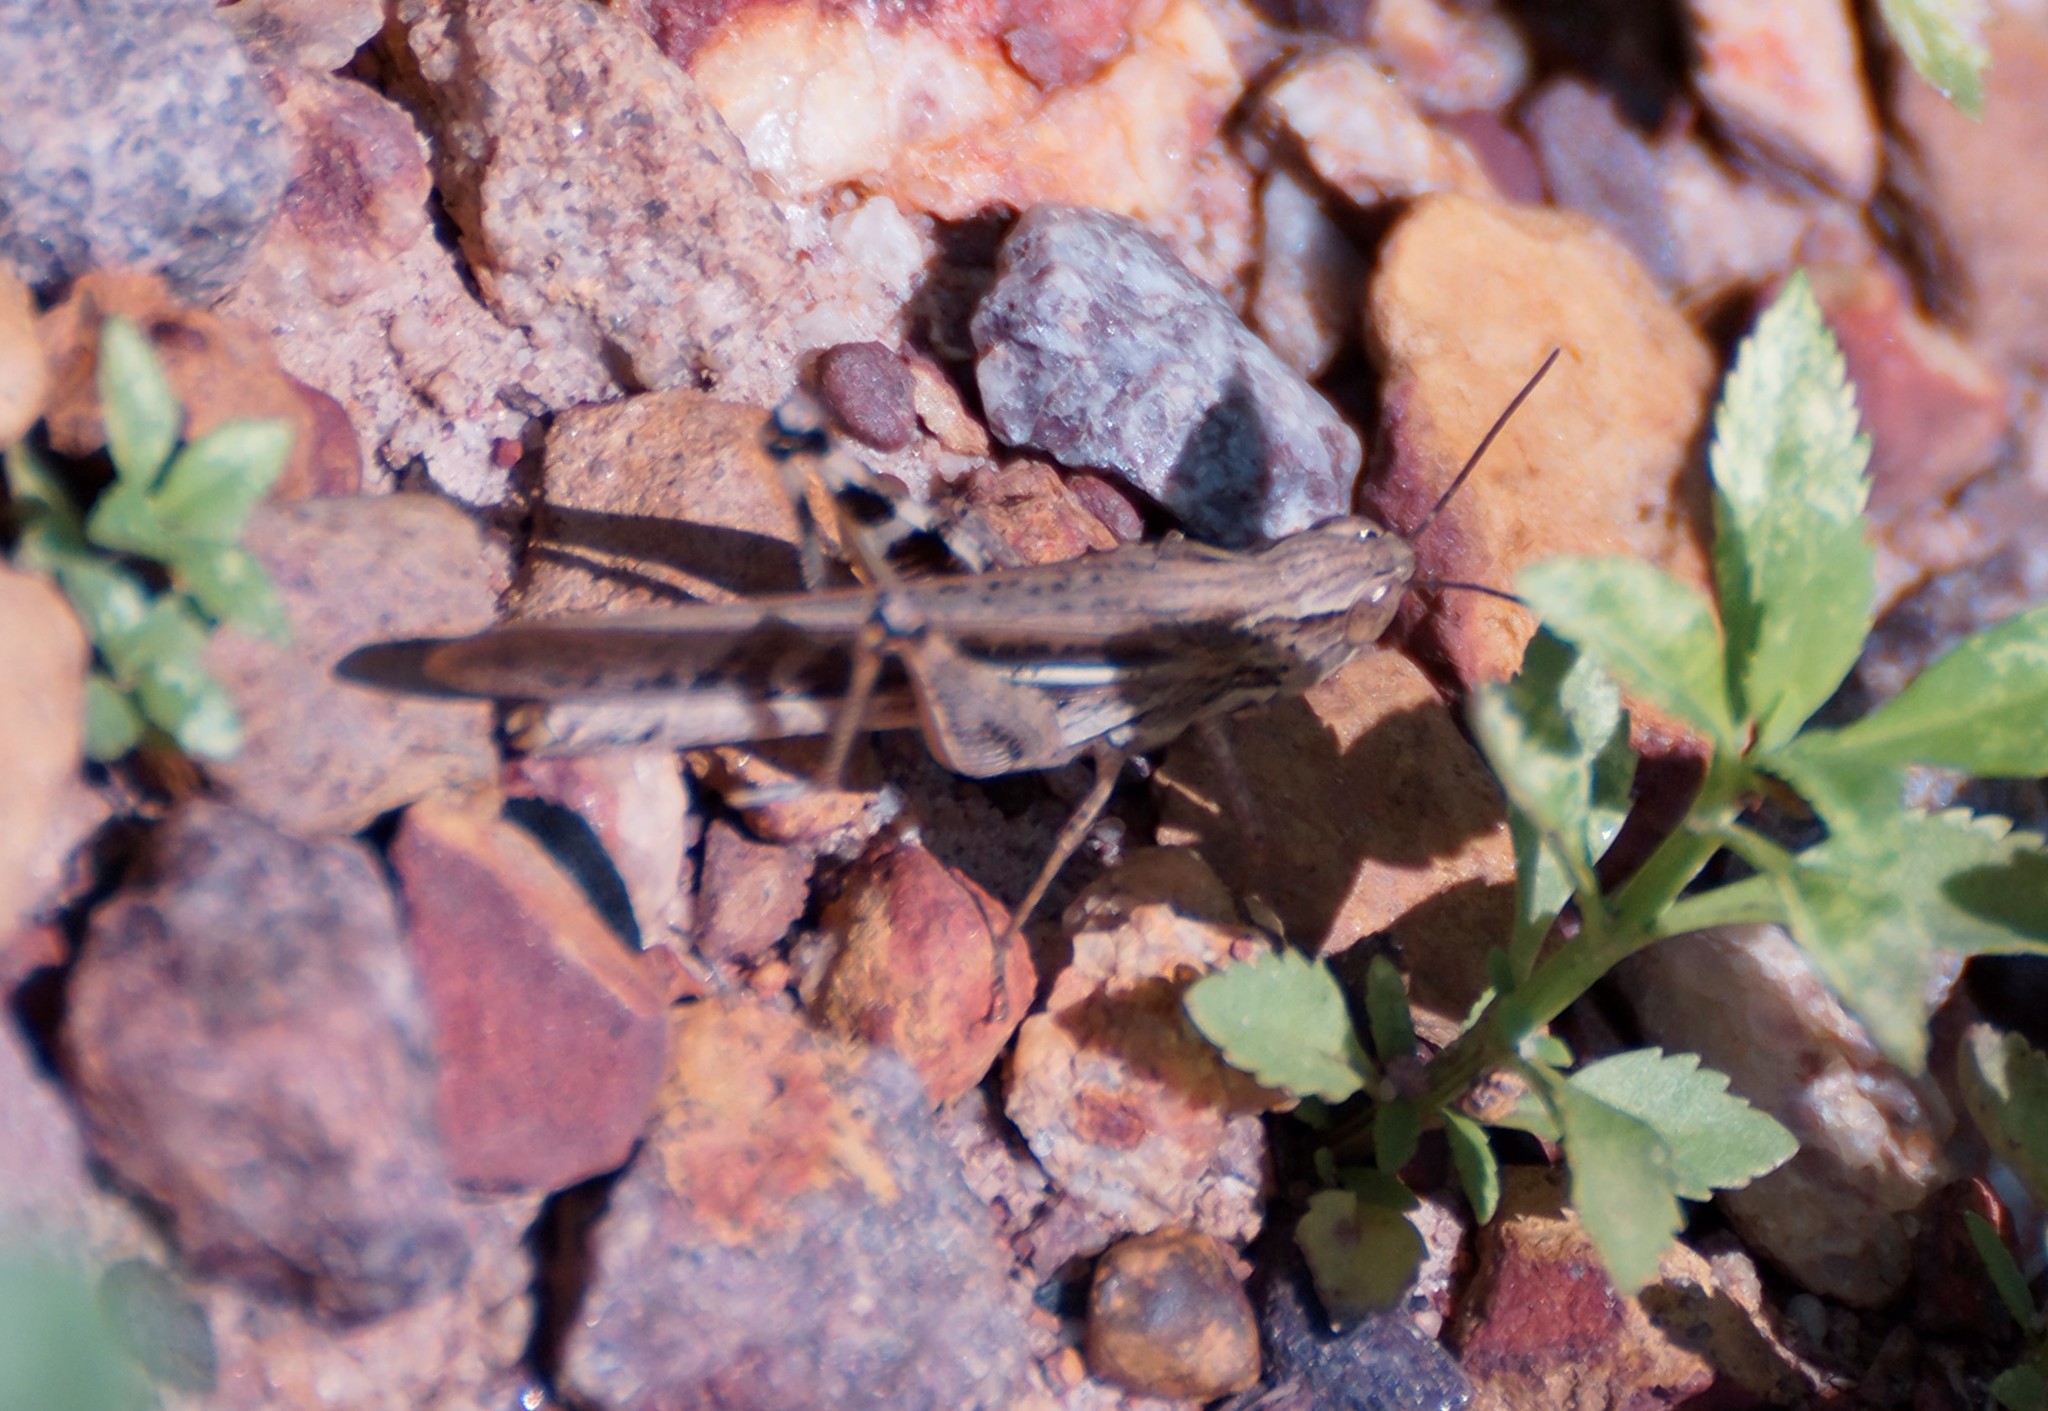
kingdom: Animalia
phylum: Arthropoda
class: Insecta
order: Orthoptera
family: Acrididae
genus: Aiolopus
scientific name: Aiolopus thalassinus
